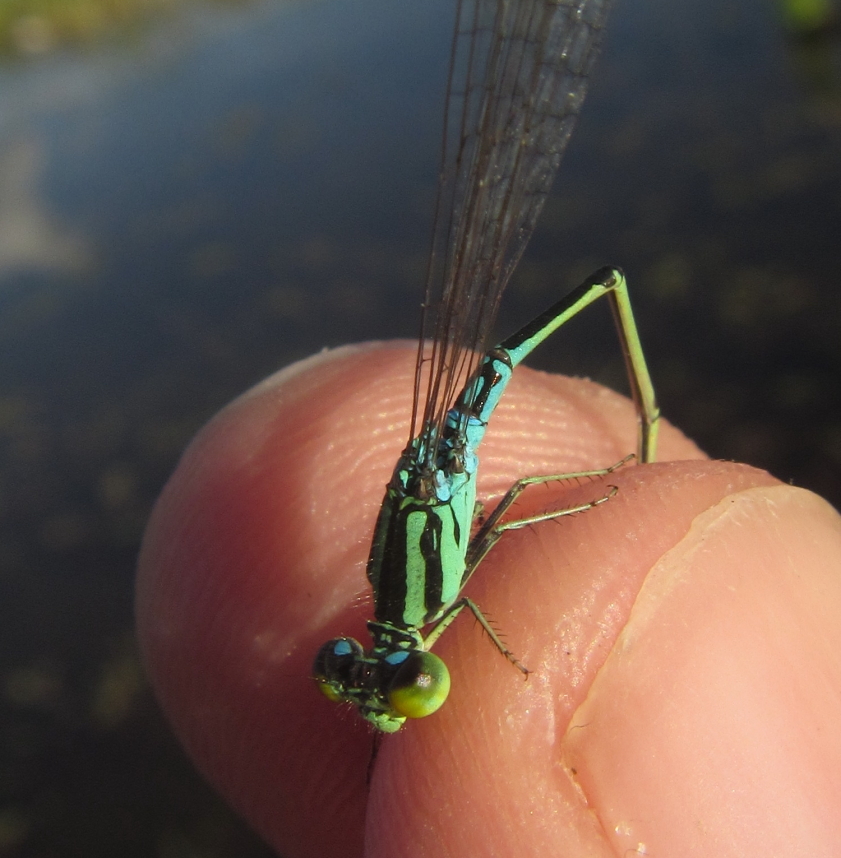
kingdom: Animalia
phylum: Arthropoda
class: Insecta
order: Odonata
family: Coenagrionidae
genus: Pseudagrion
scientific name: Pseudagrion nubicum
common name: Bluetail sprite
